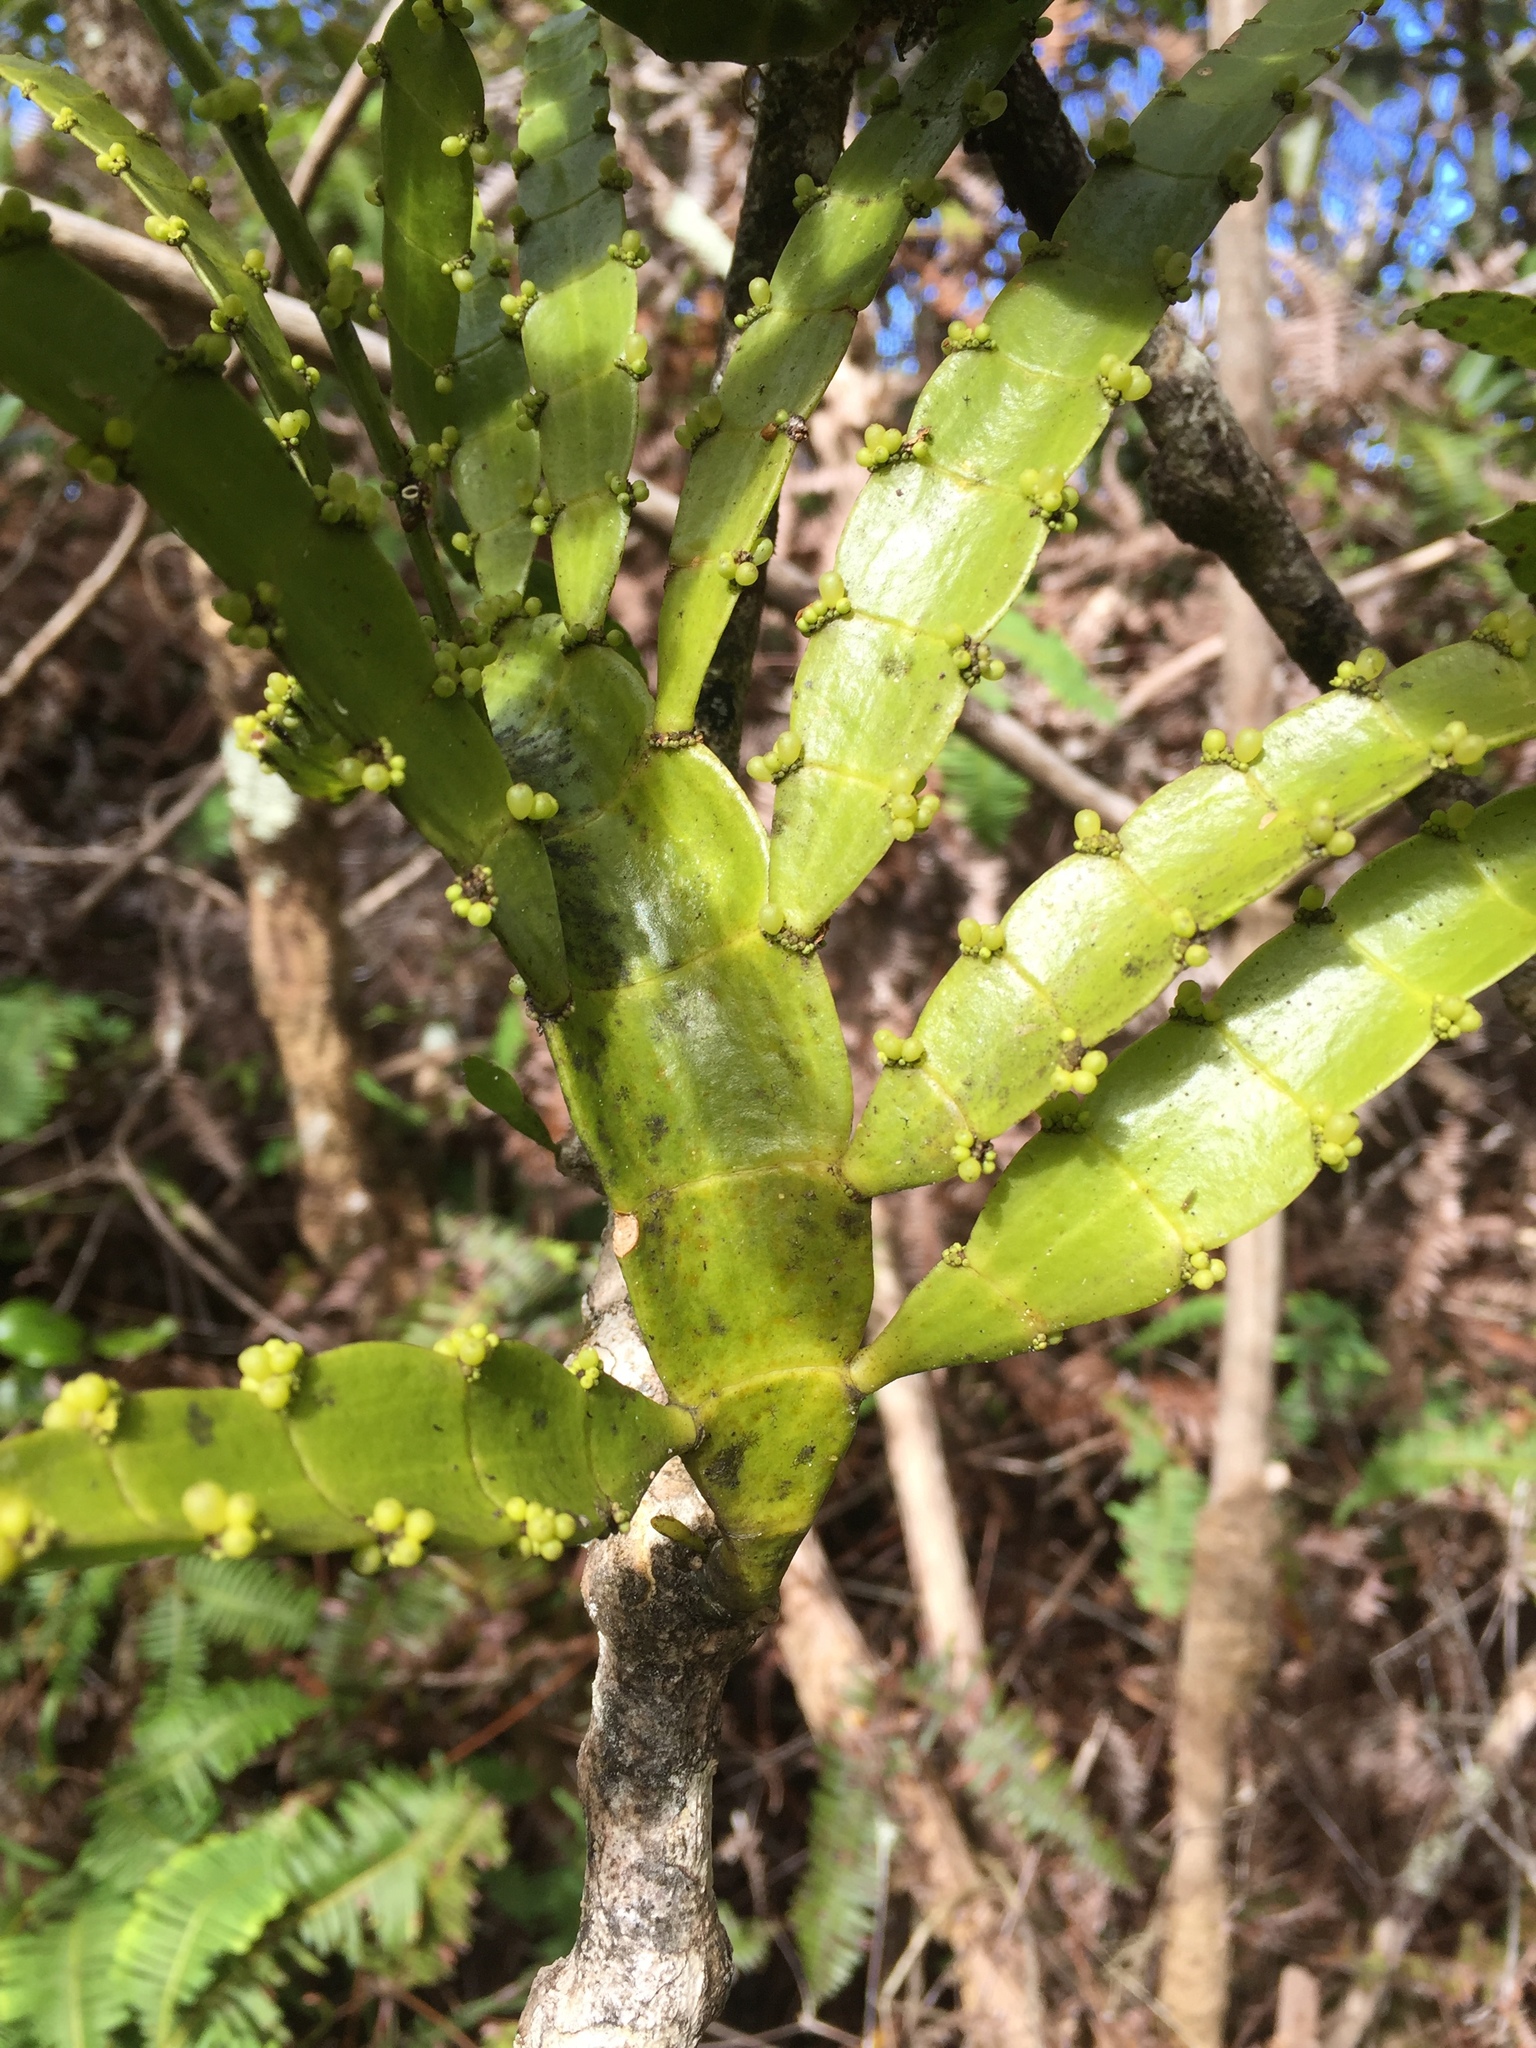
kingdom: Plantae
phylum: Tracheophyta
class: Magnoliopsida
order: Santalales
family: Viscaceae
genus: Korthalsella
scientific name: Korthalsella latissima
